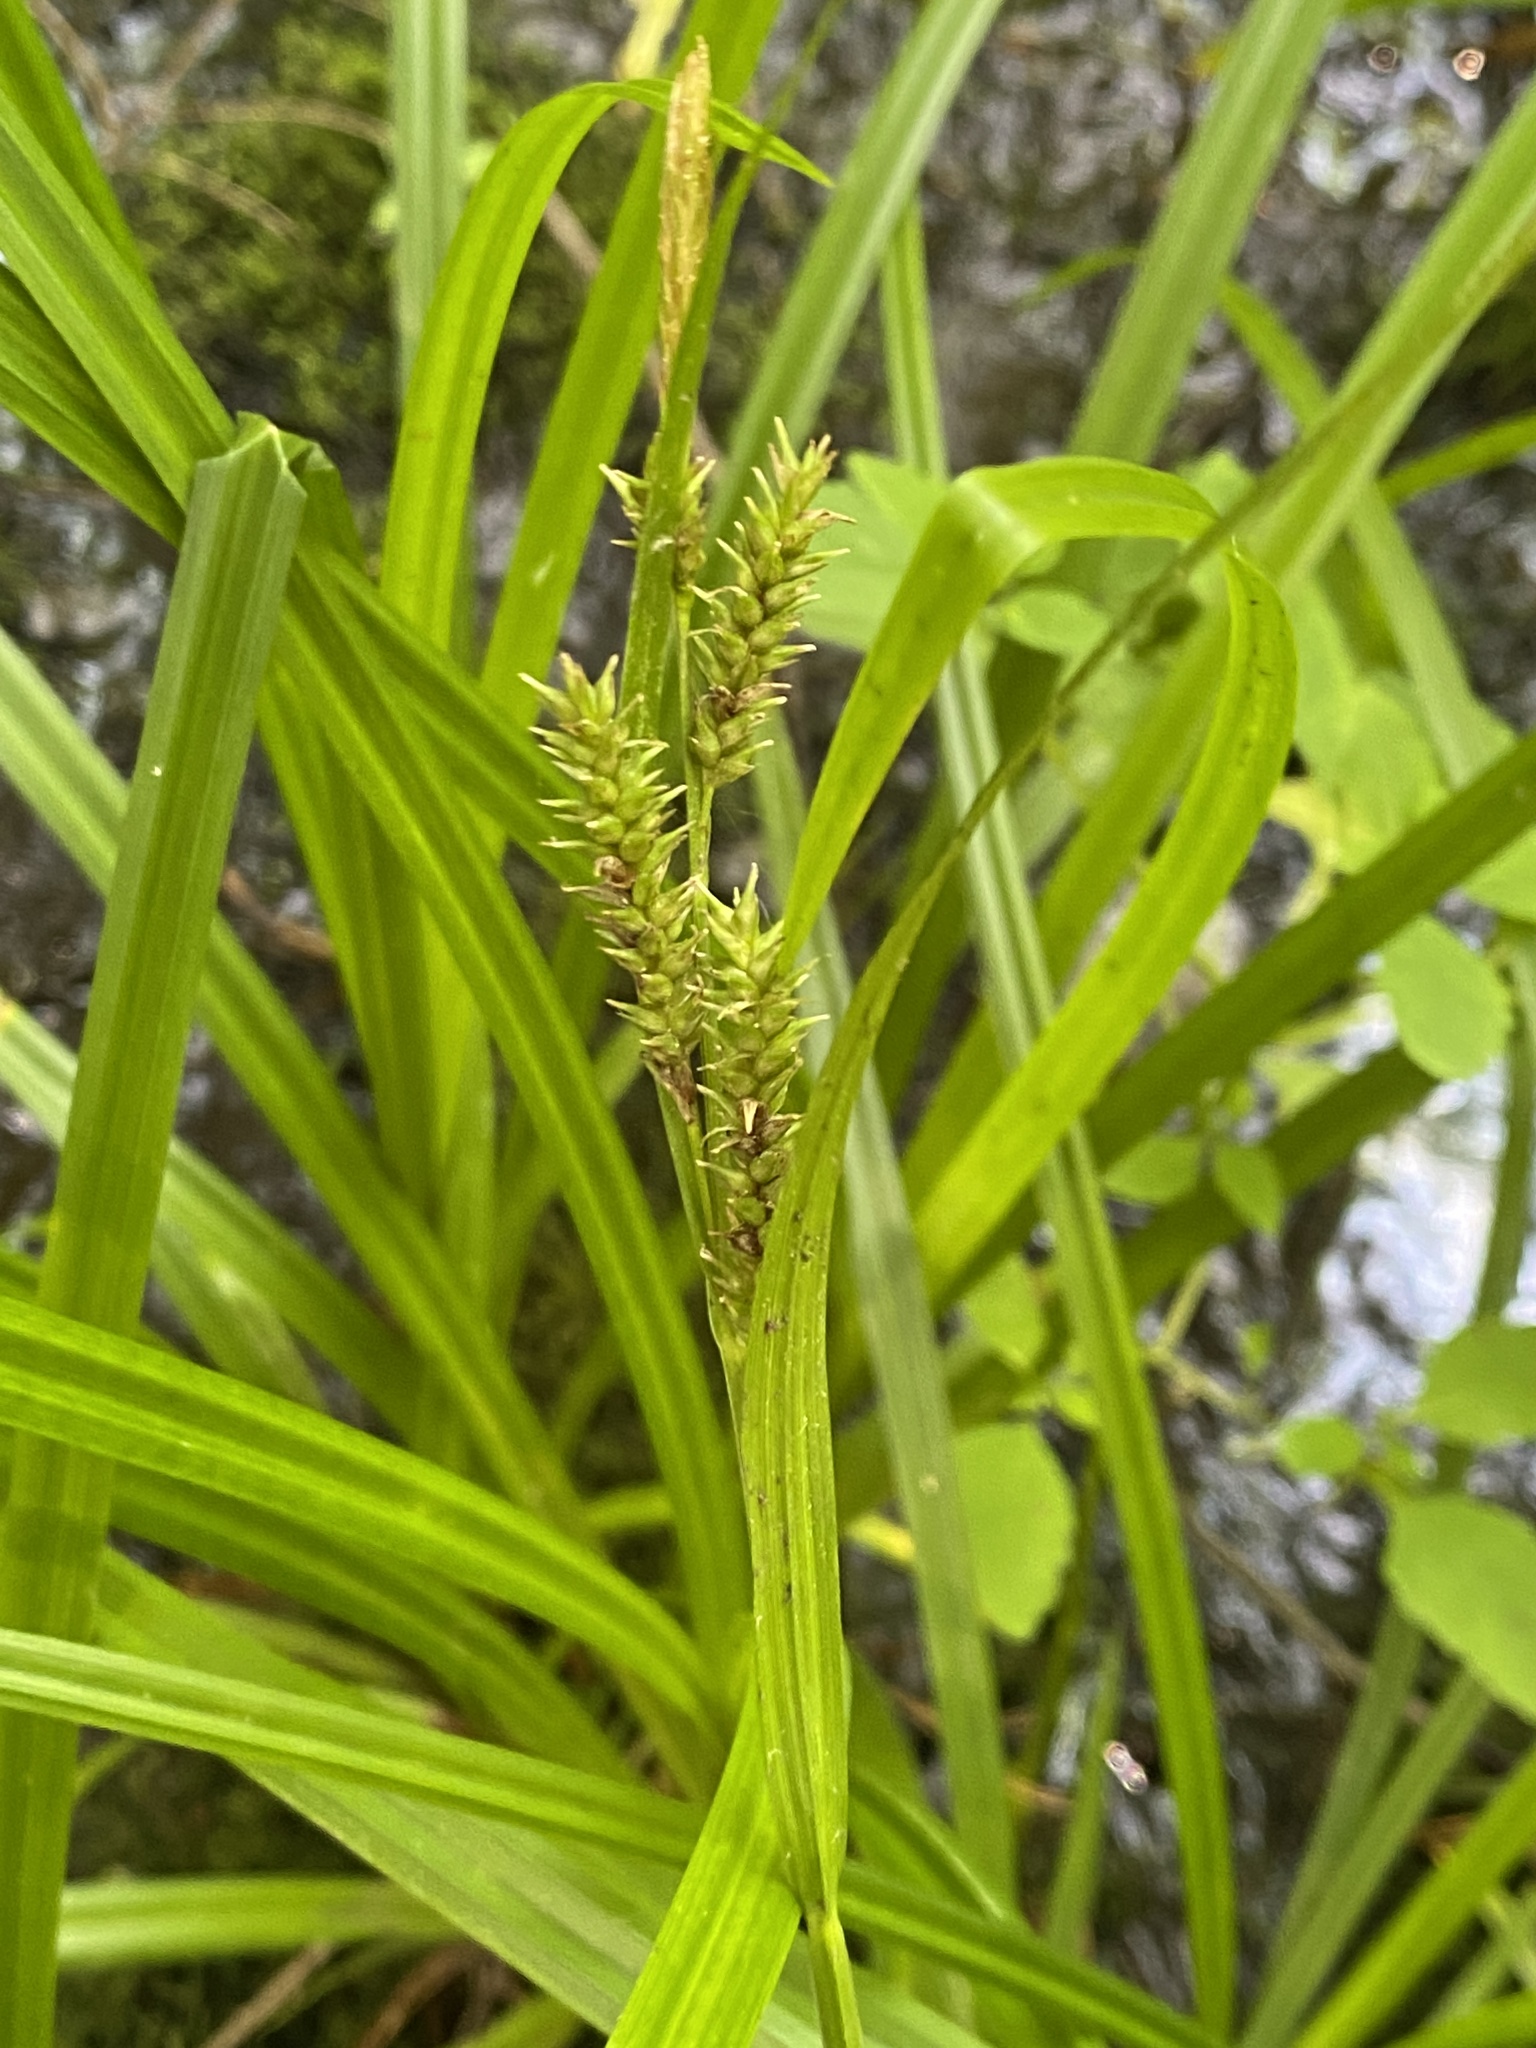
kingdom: Plantae
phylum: Tracheophyta
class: Liliopsida
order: Poales
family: Cyperaceae
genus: Carex
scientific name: Carex scabrata
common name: Eastern rough sedge
